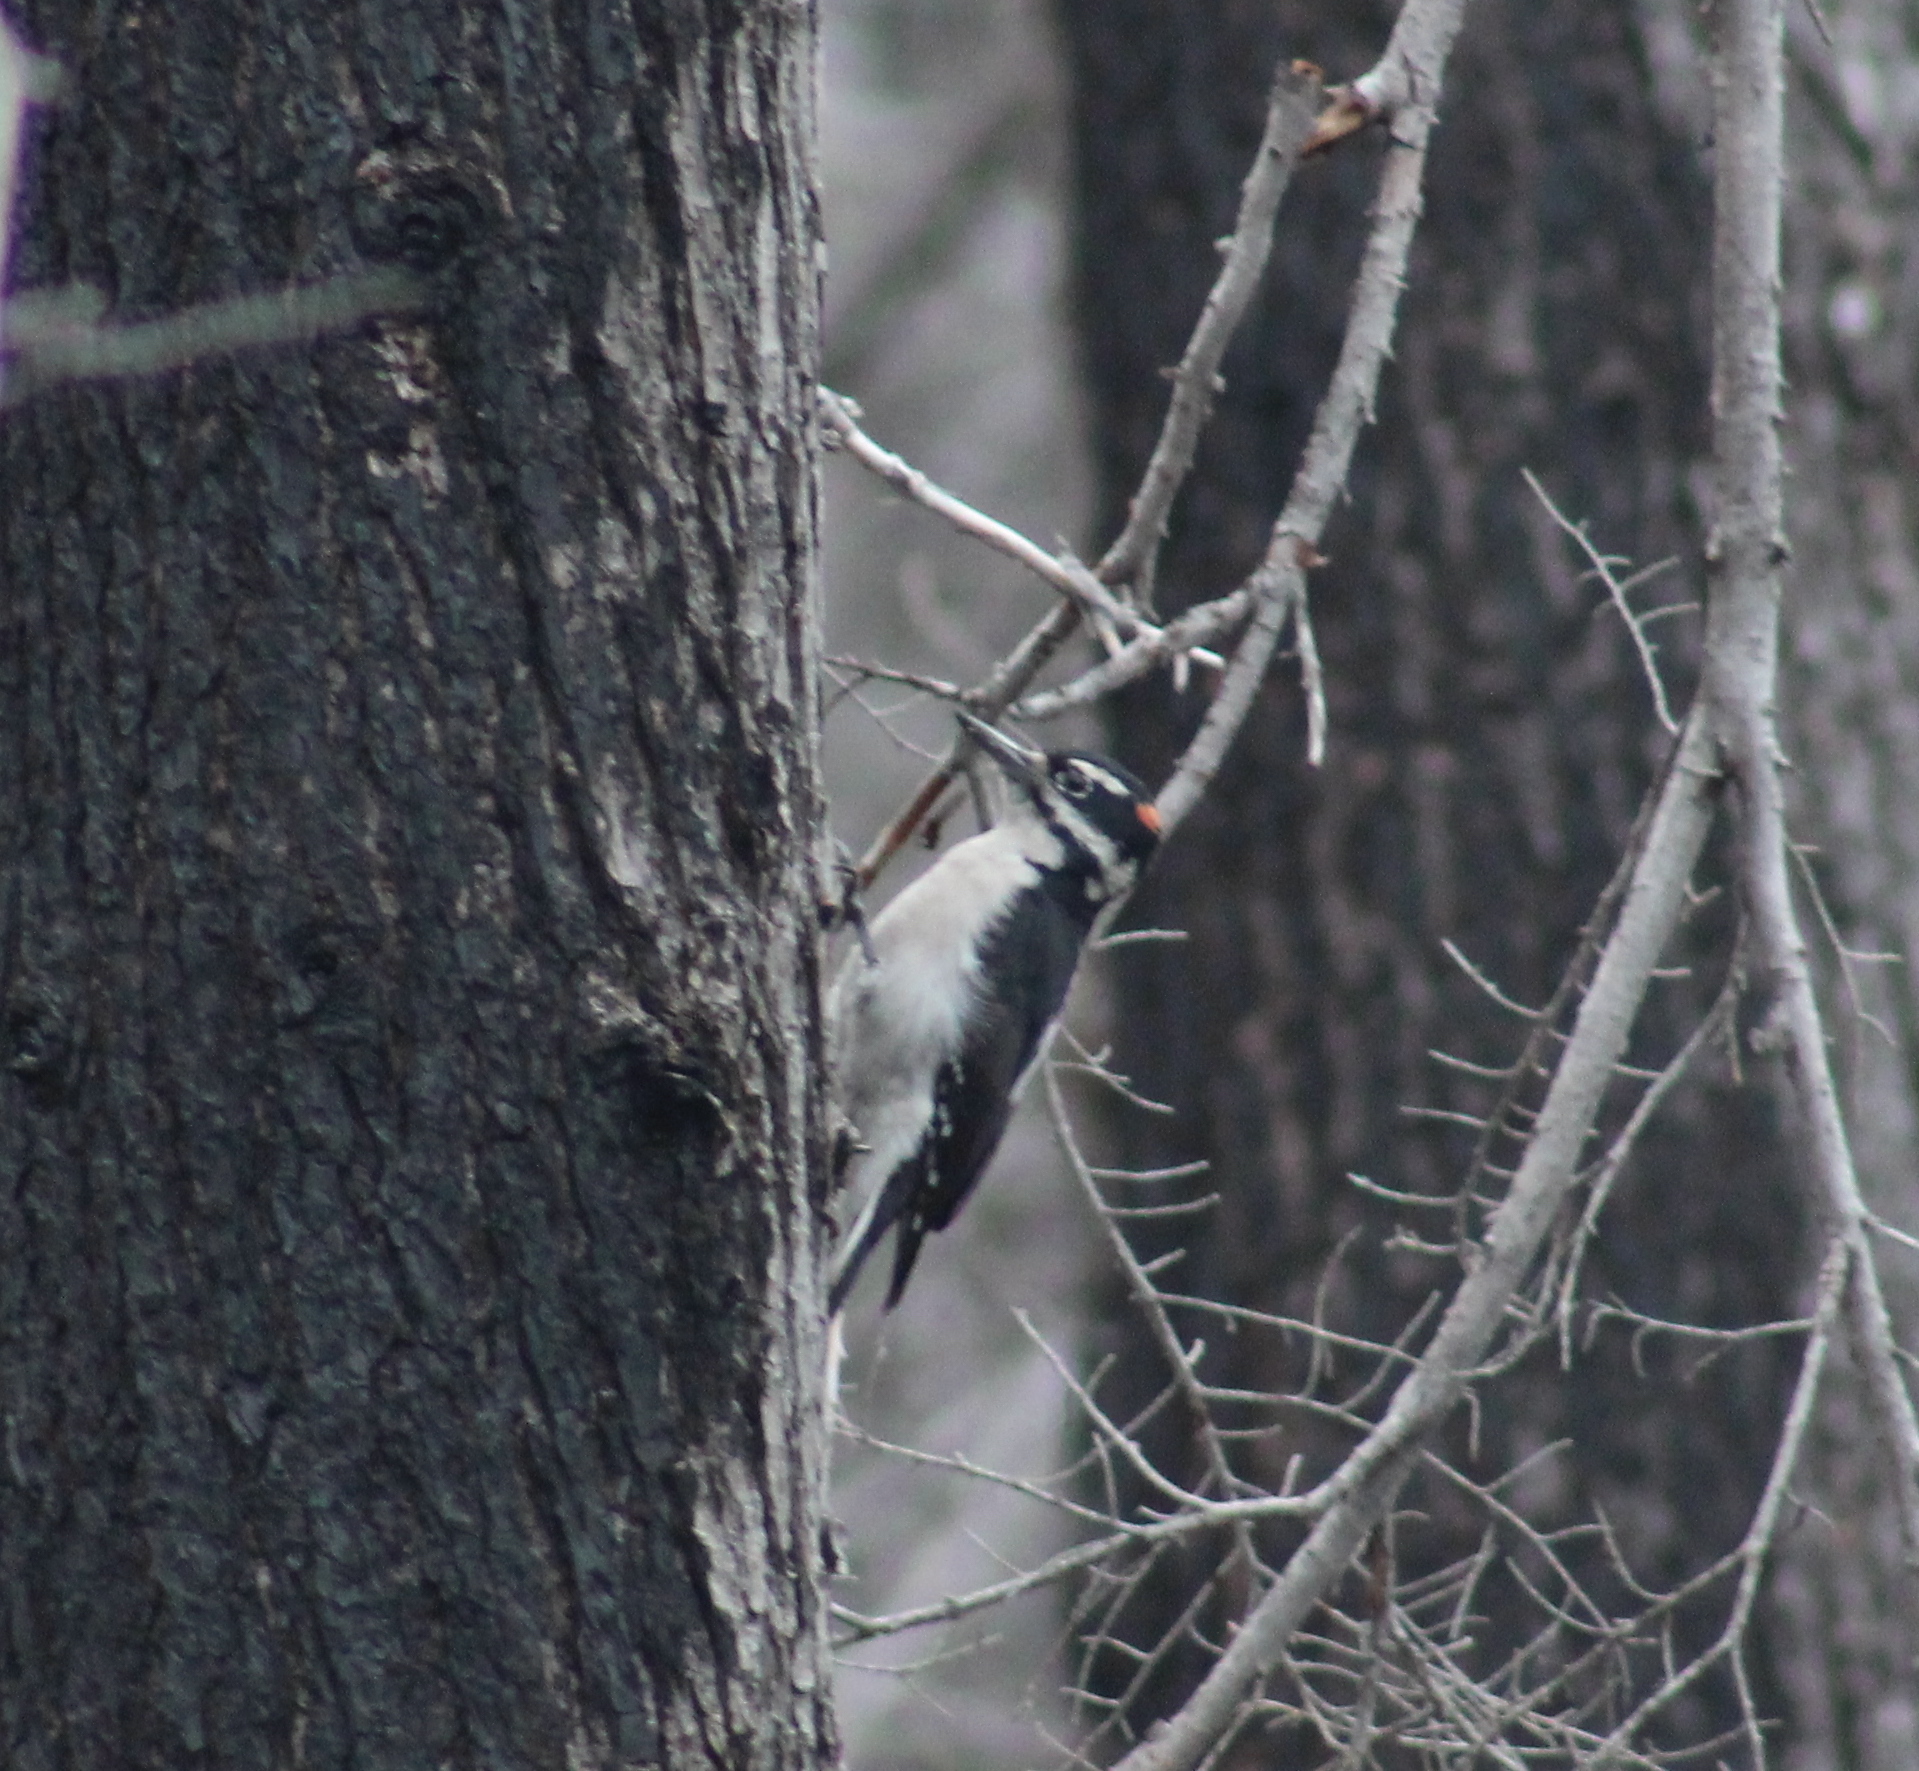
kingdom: Animalia
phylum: Chordata
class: Aves
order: Piciformes
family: Picidae
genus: Leuconotopicus
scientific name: Leuconotopicus villosus
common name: Hairy woodpecker
